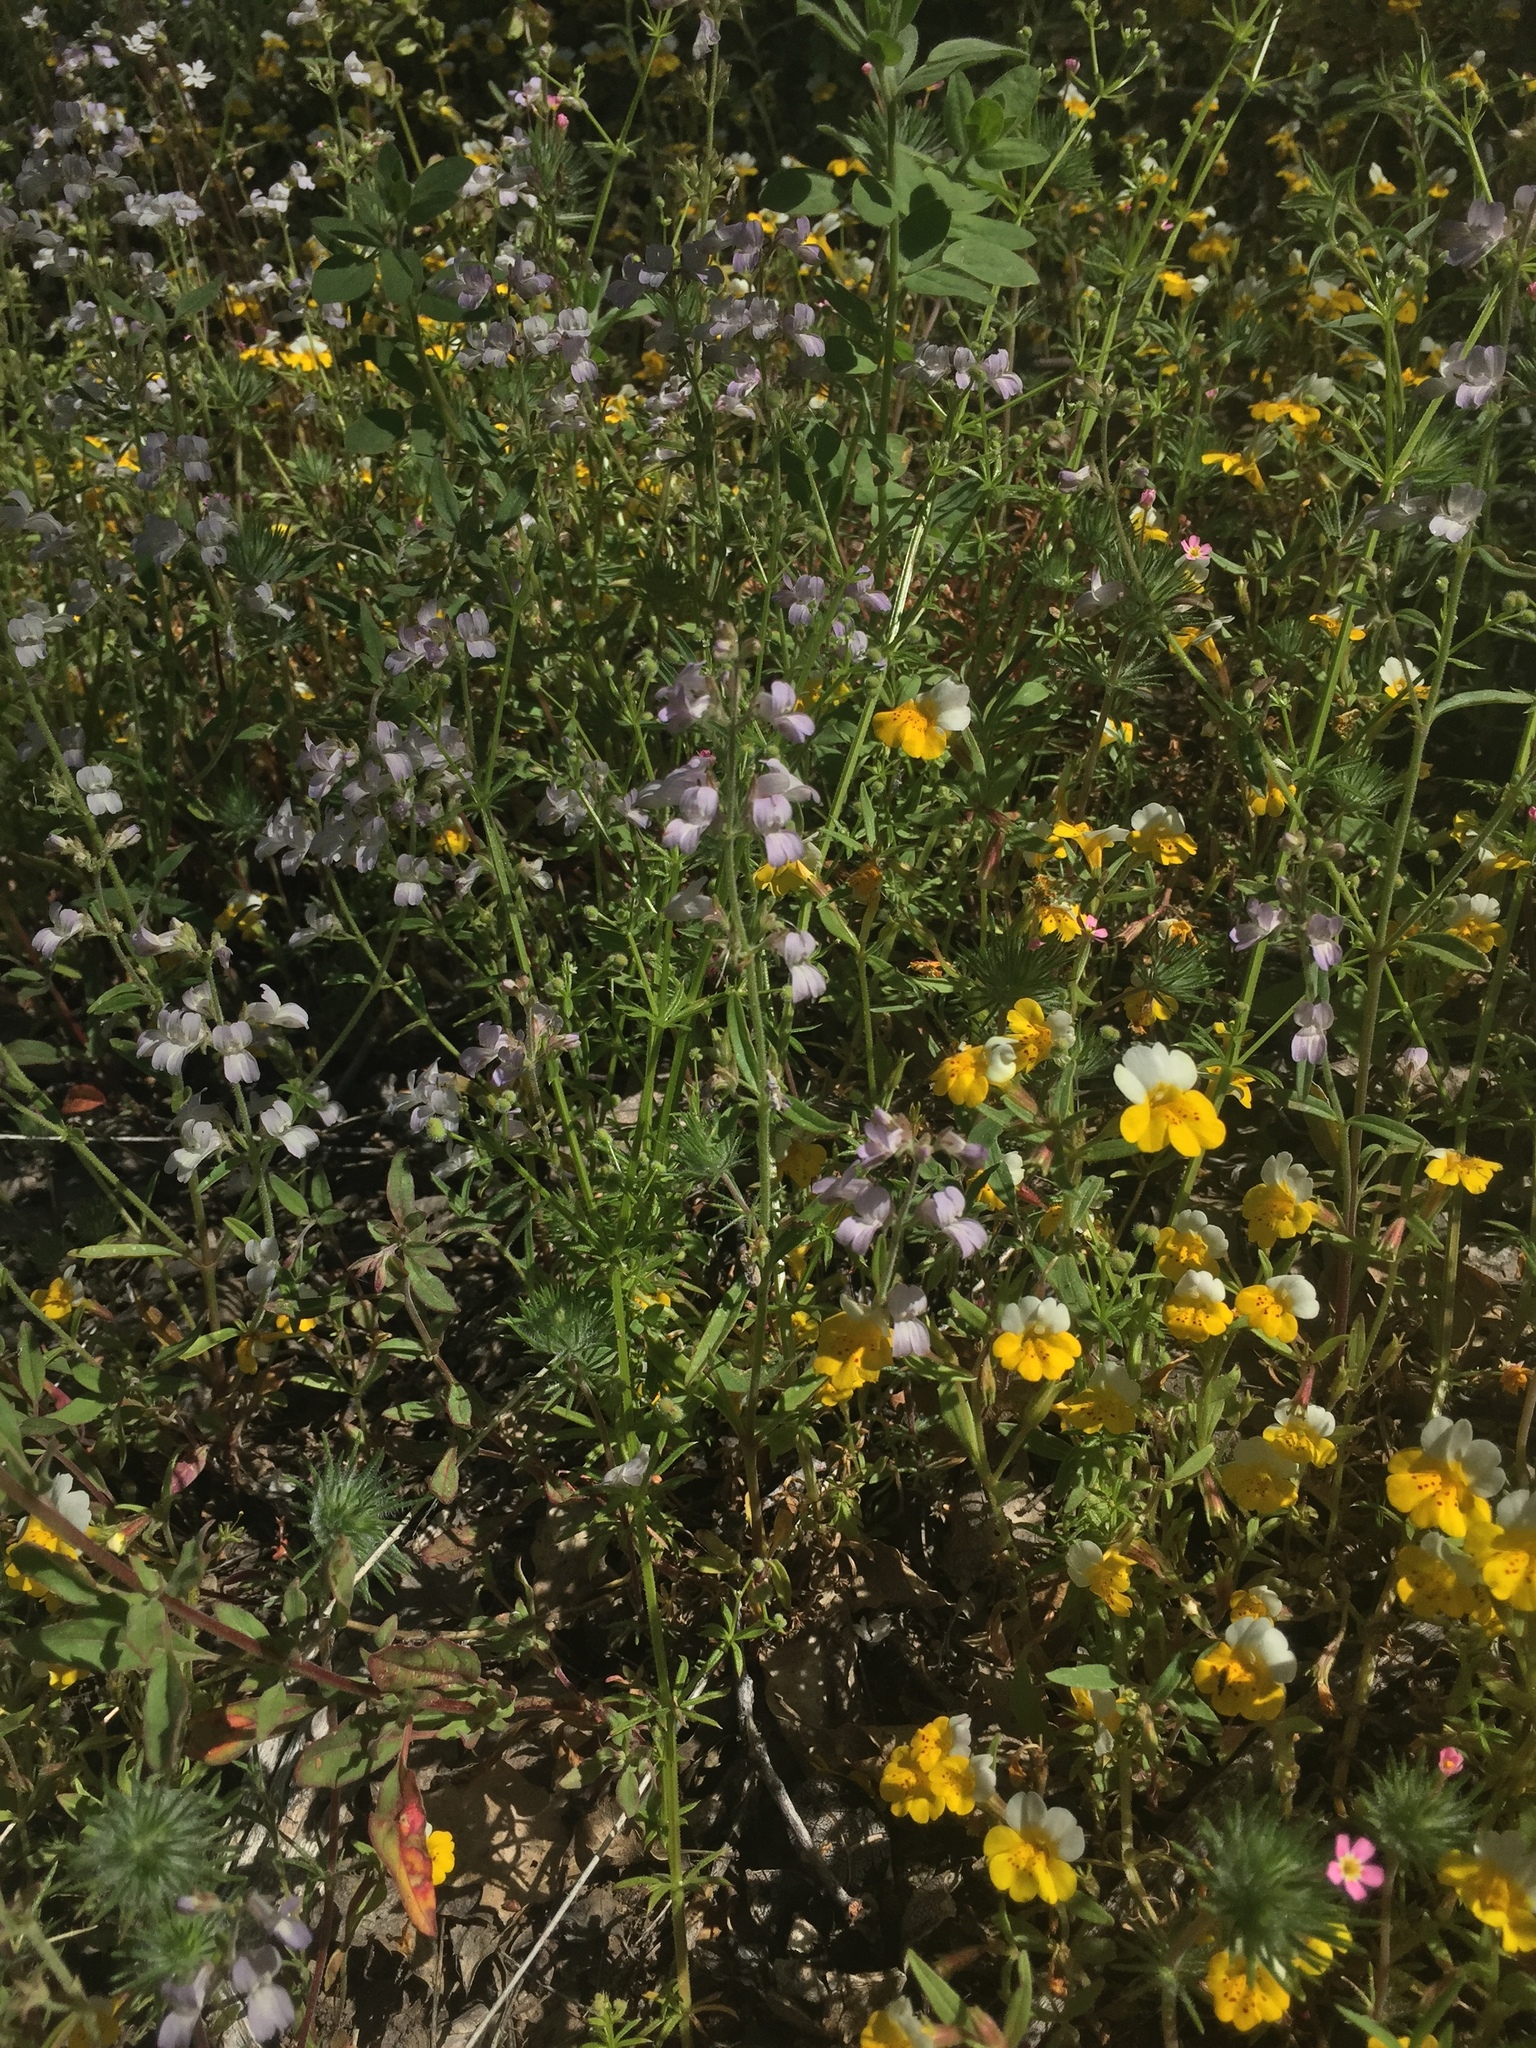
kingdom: Plantae
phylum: Tracheophyta
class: Magnoliopsida
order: Lamiales
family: Phrymaceae
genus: Erythranthe
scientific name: Erythranthe bicolor
